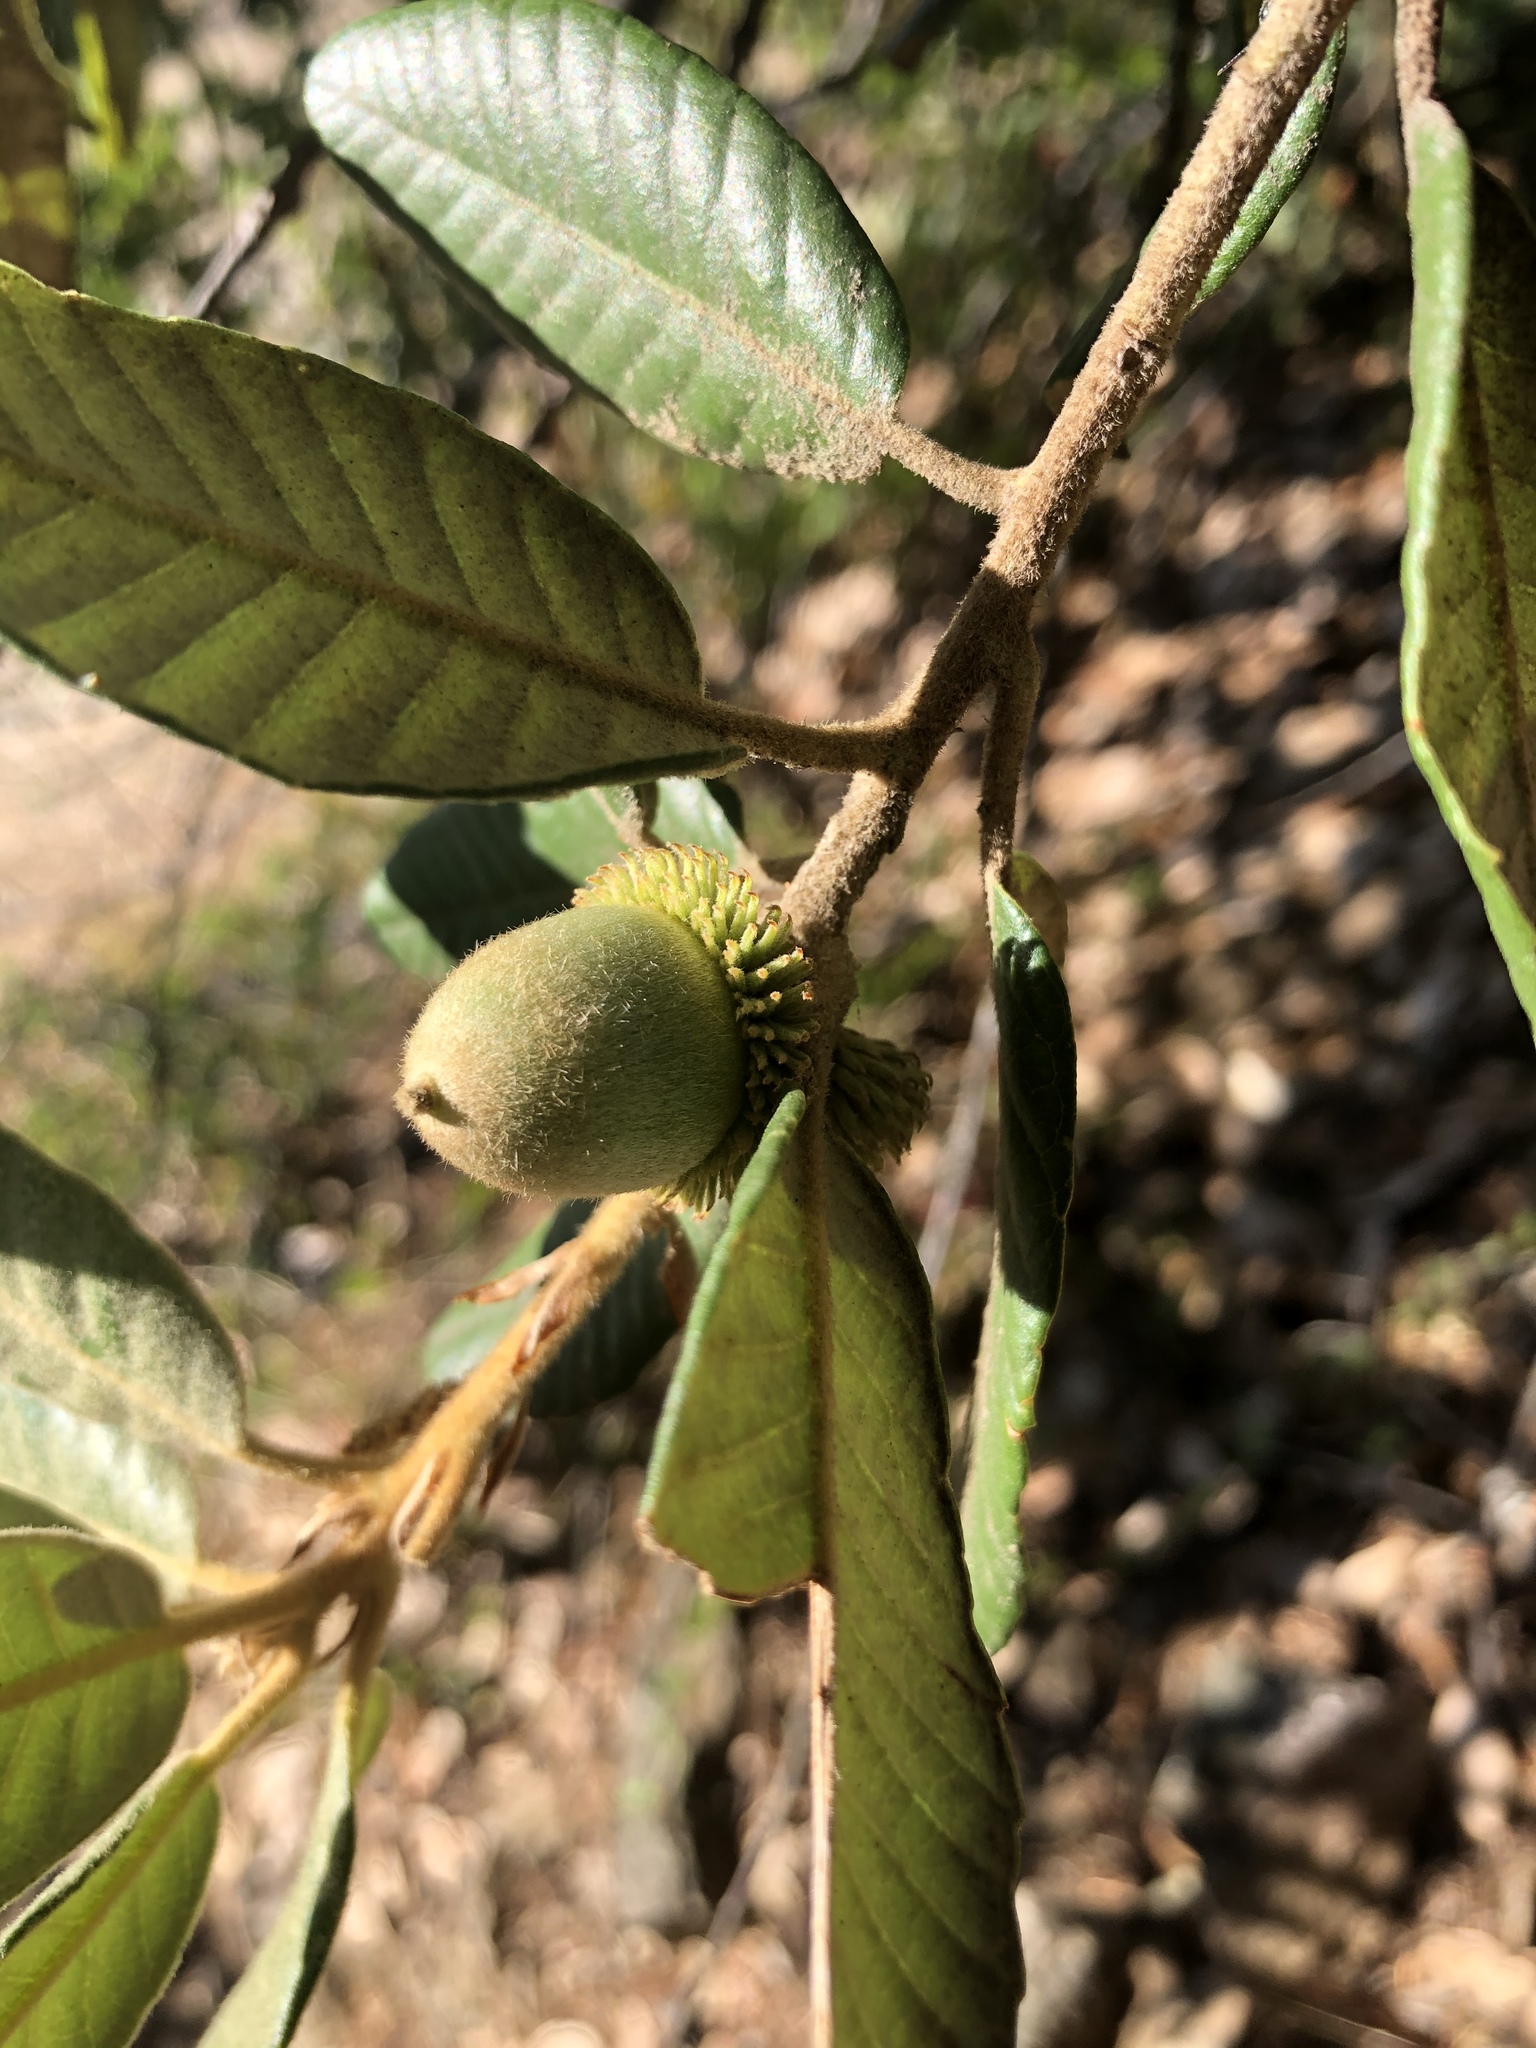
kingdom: Plantae
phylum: Tracheophyta
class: Magnoliopsida
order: Fagales
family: Fagaceae
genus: Notholithocarpus
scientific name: Notholithocarpus densiflorus
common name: Tan bark oak
